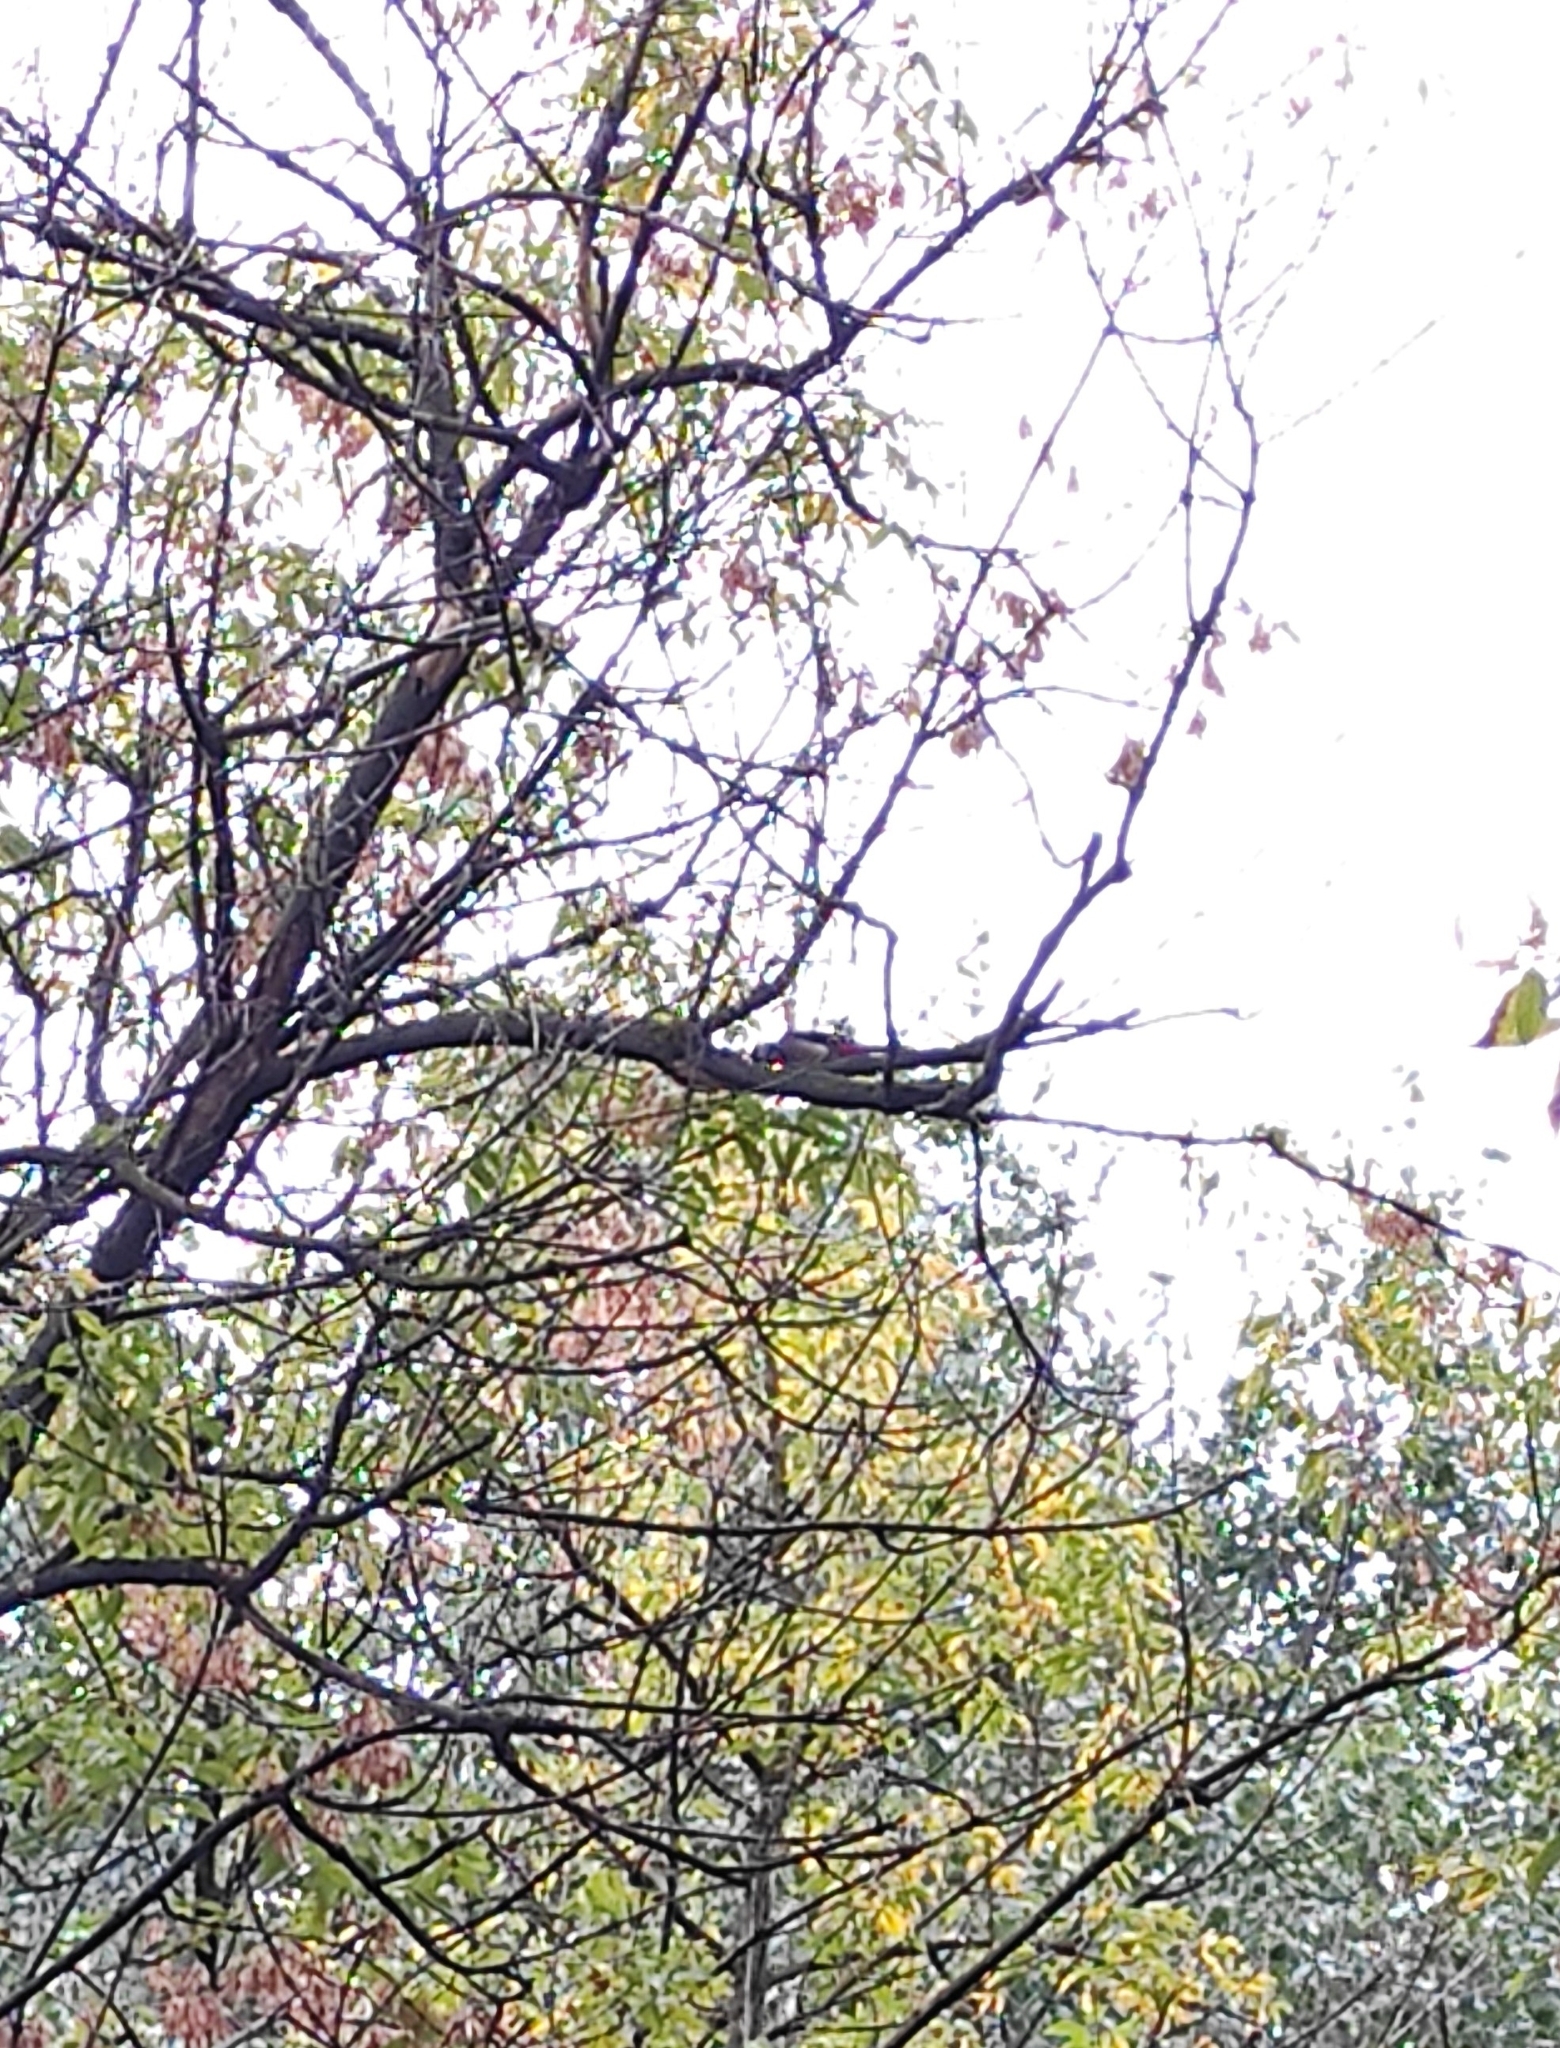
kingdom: Animalia
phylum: Chordata
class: Aves
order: Piciformes
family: Picidae
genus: Dendrocopos
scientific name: Dendrocopos major
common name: Great spotted woodpecker
